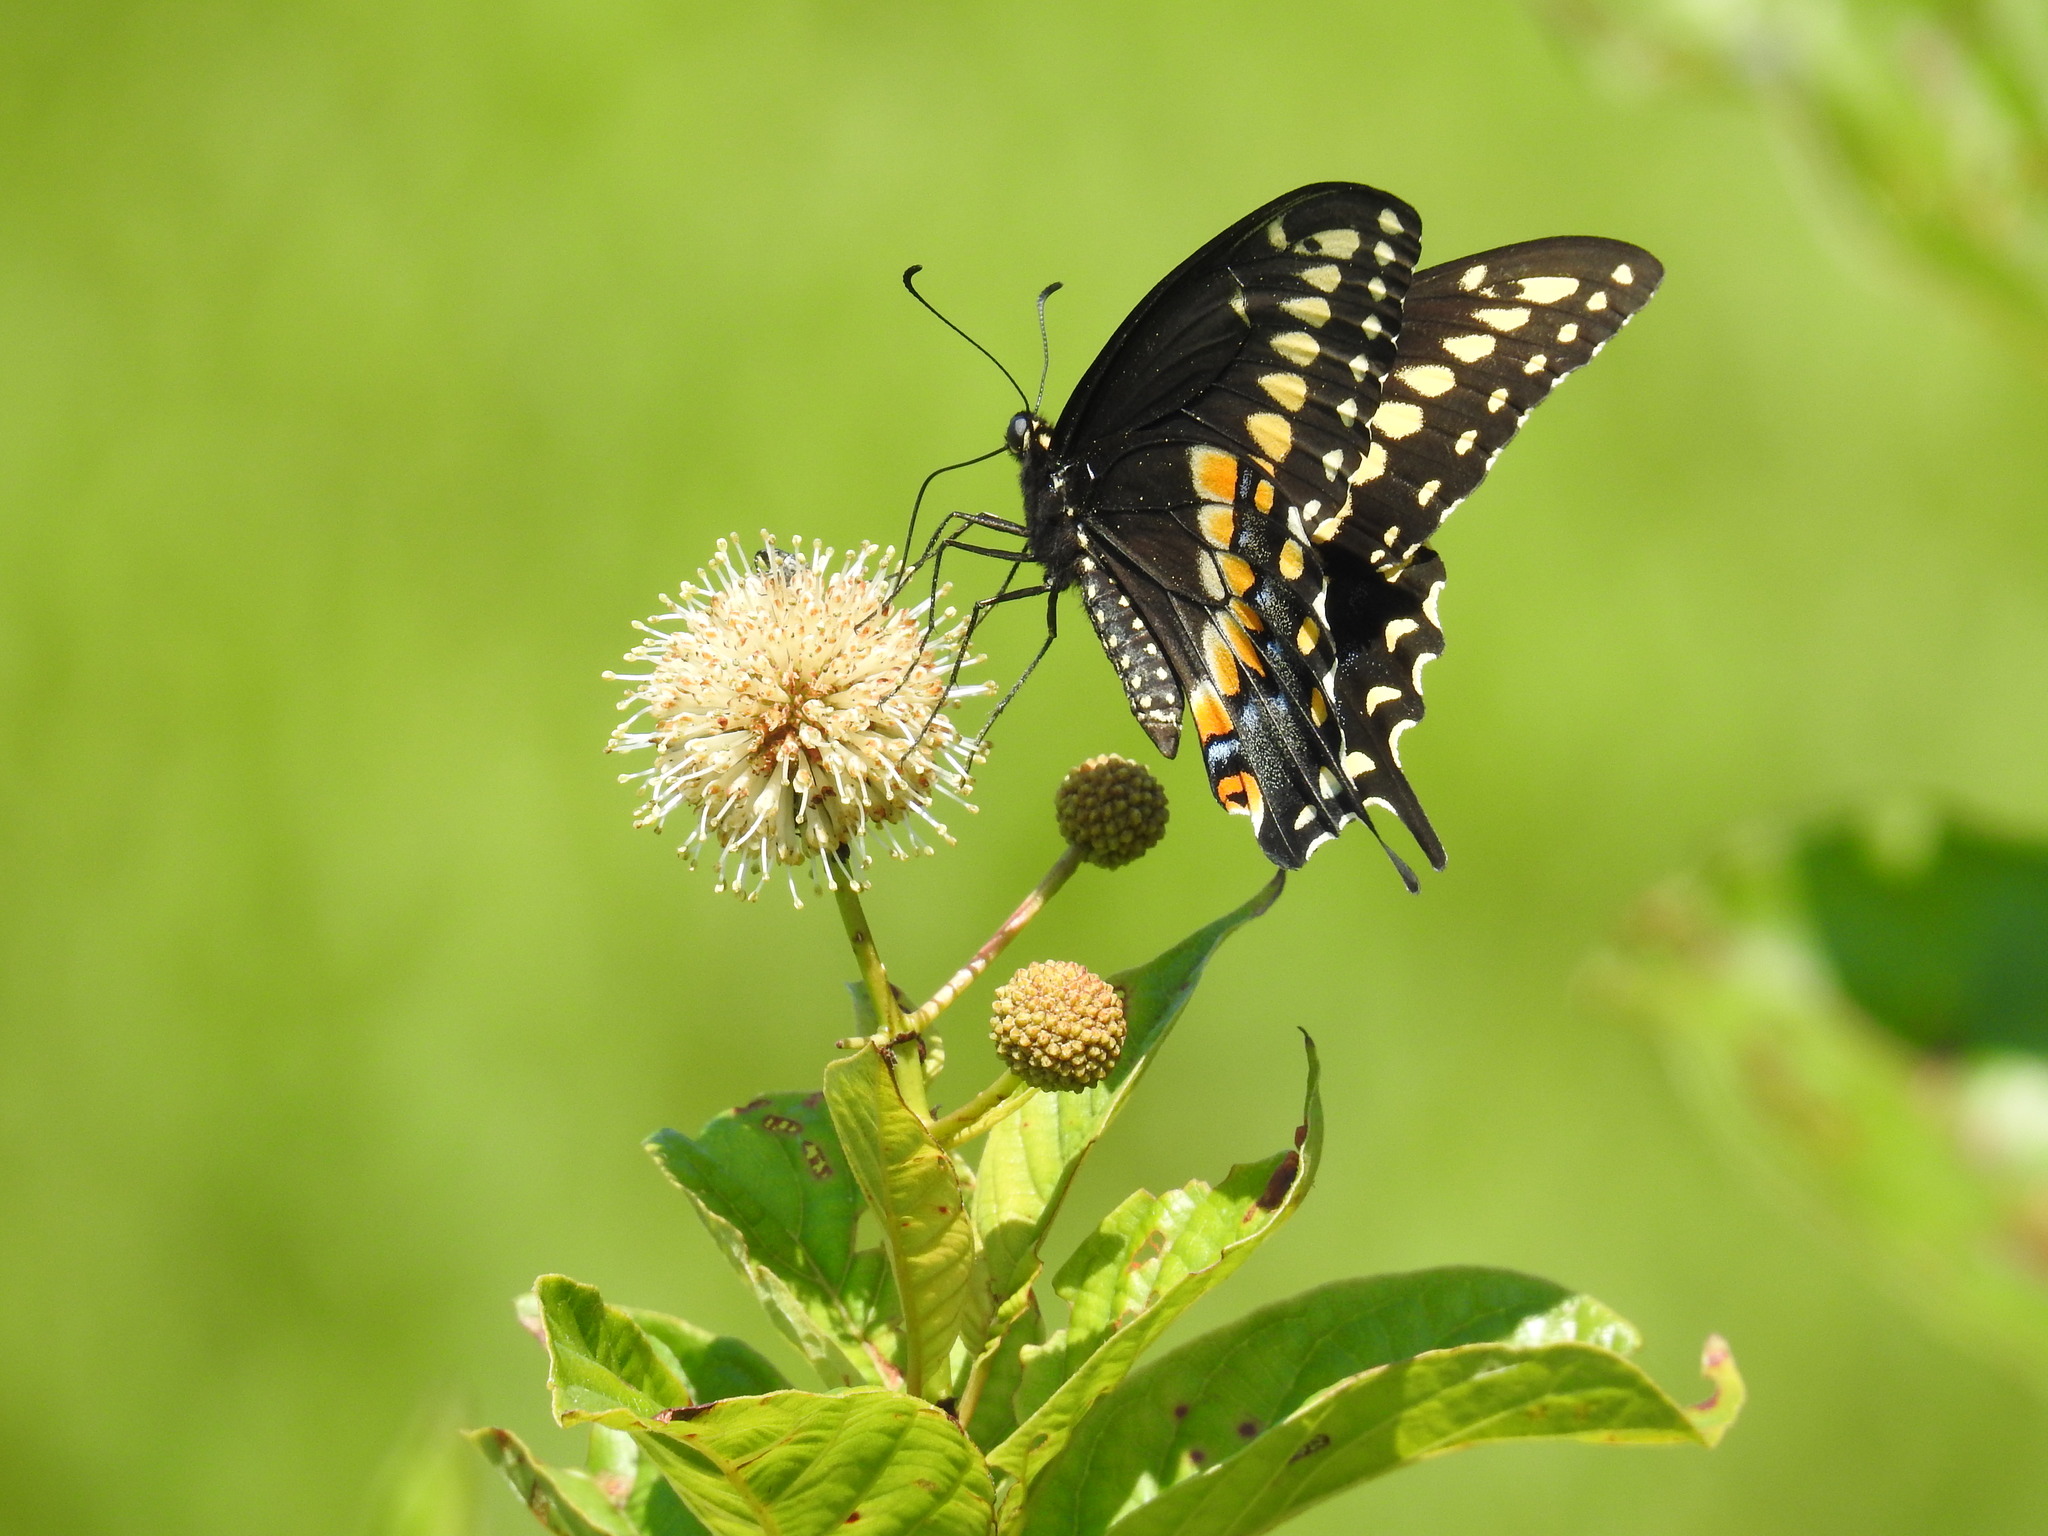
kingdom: Animalia
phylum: Arthropoda
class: Insecta
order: Lepidoptera
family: Papilionidae
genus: Papilio
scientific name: Papilio polyxenes
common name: Black swallowtail
